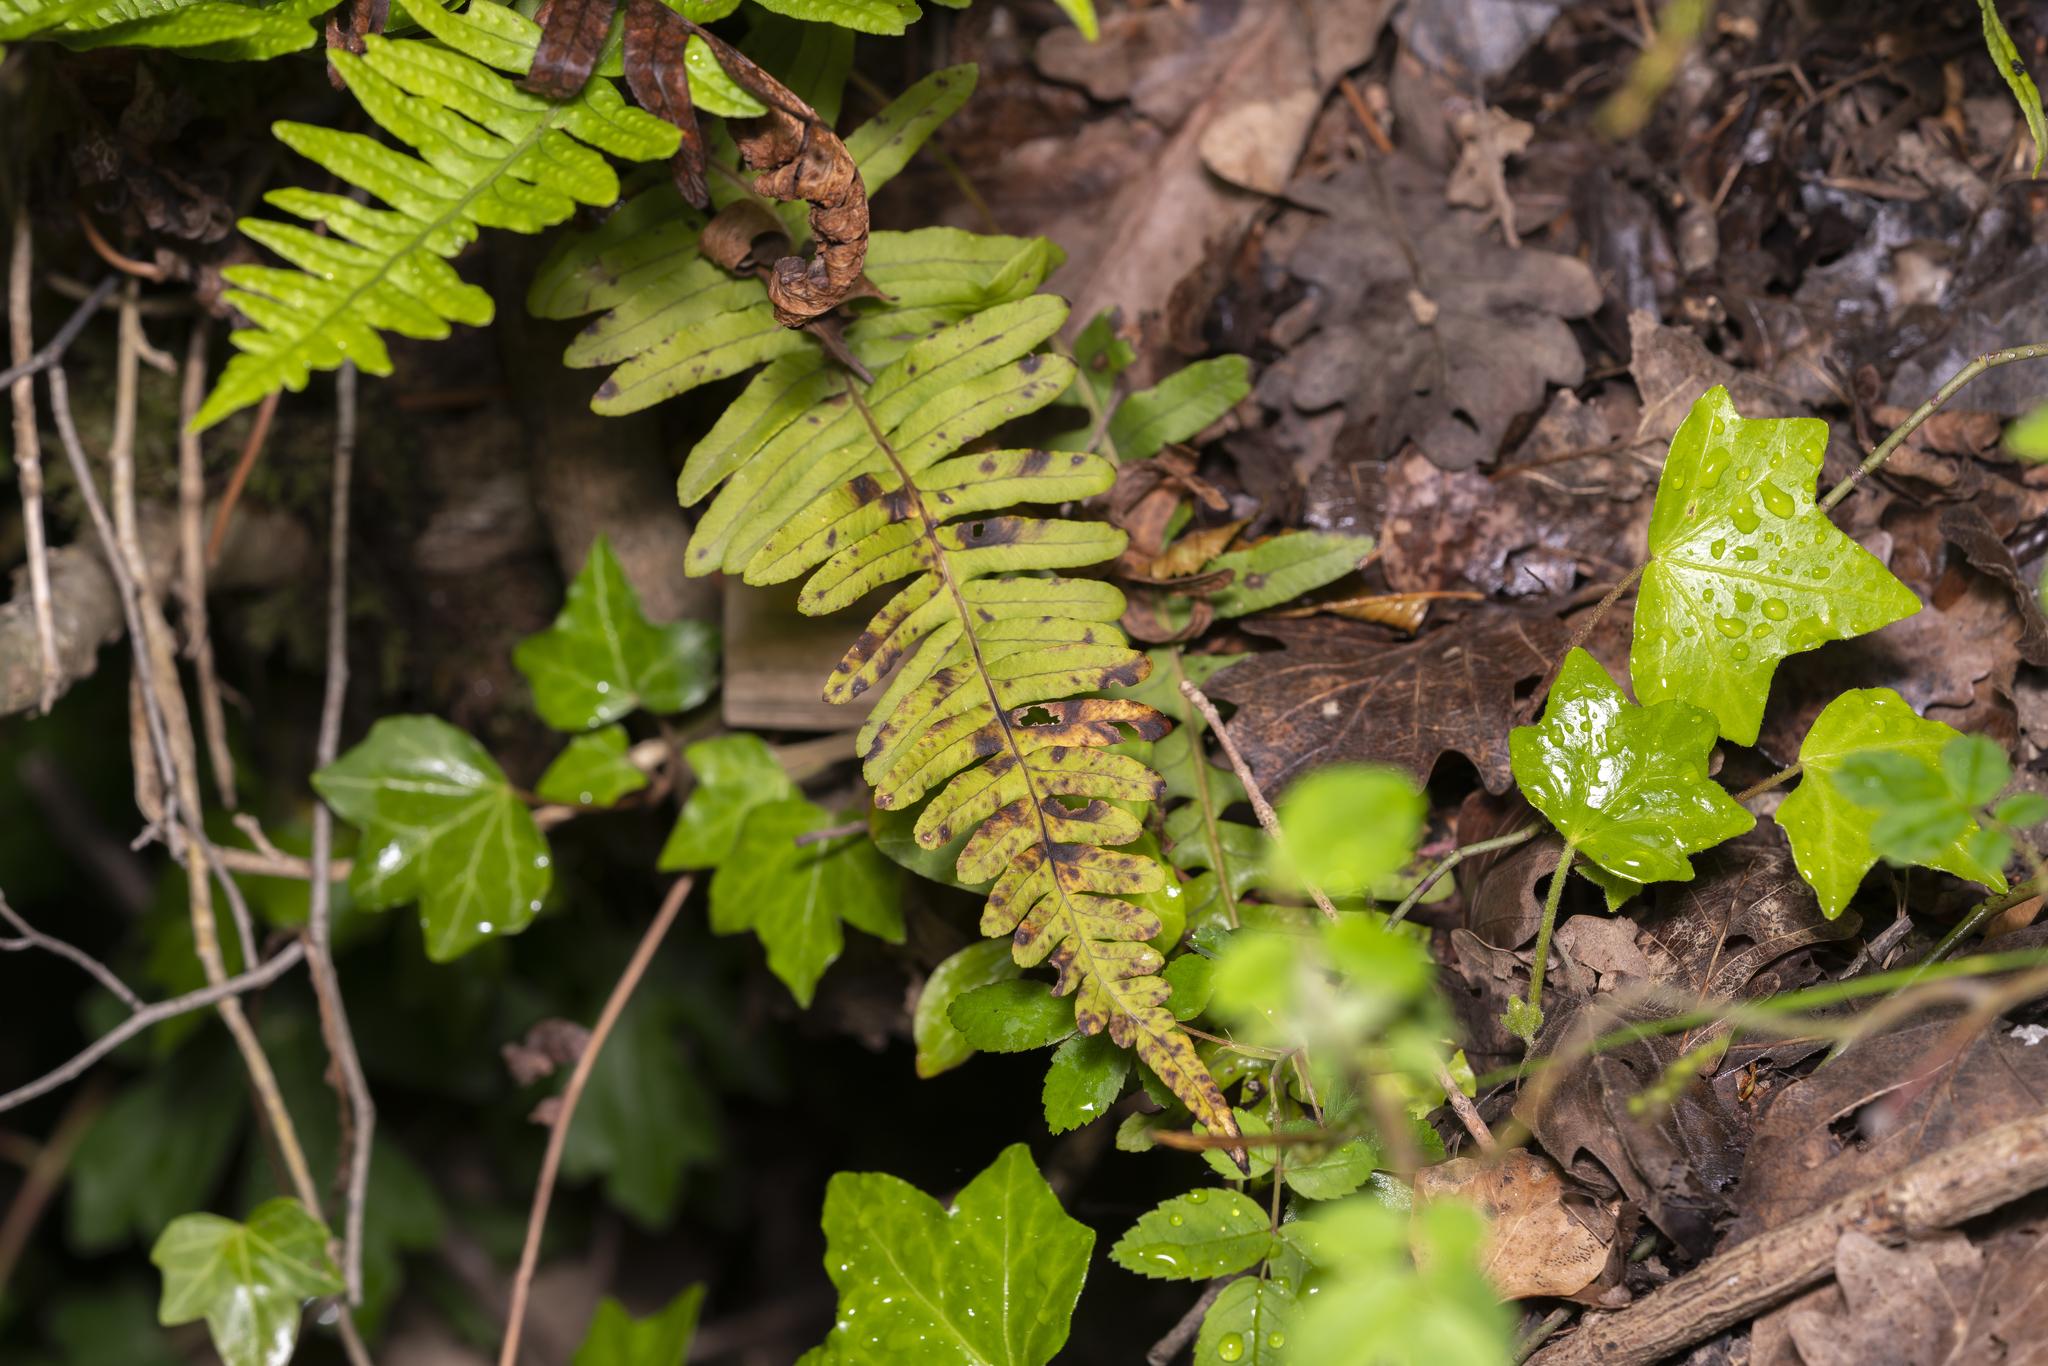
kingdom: Plantae
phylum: Tracheophyta
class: Polypodiopsida
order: Polypodiales
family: Polypodiaceae
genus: Polypodium
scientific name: Polypodium vulgare
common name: Common polypody
